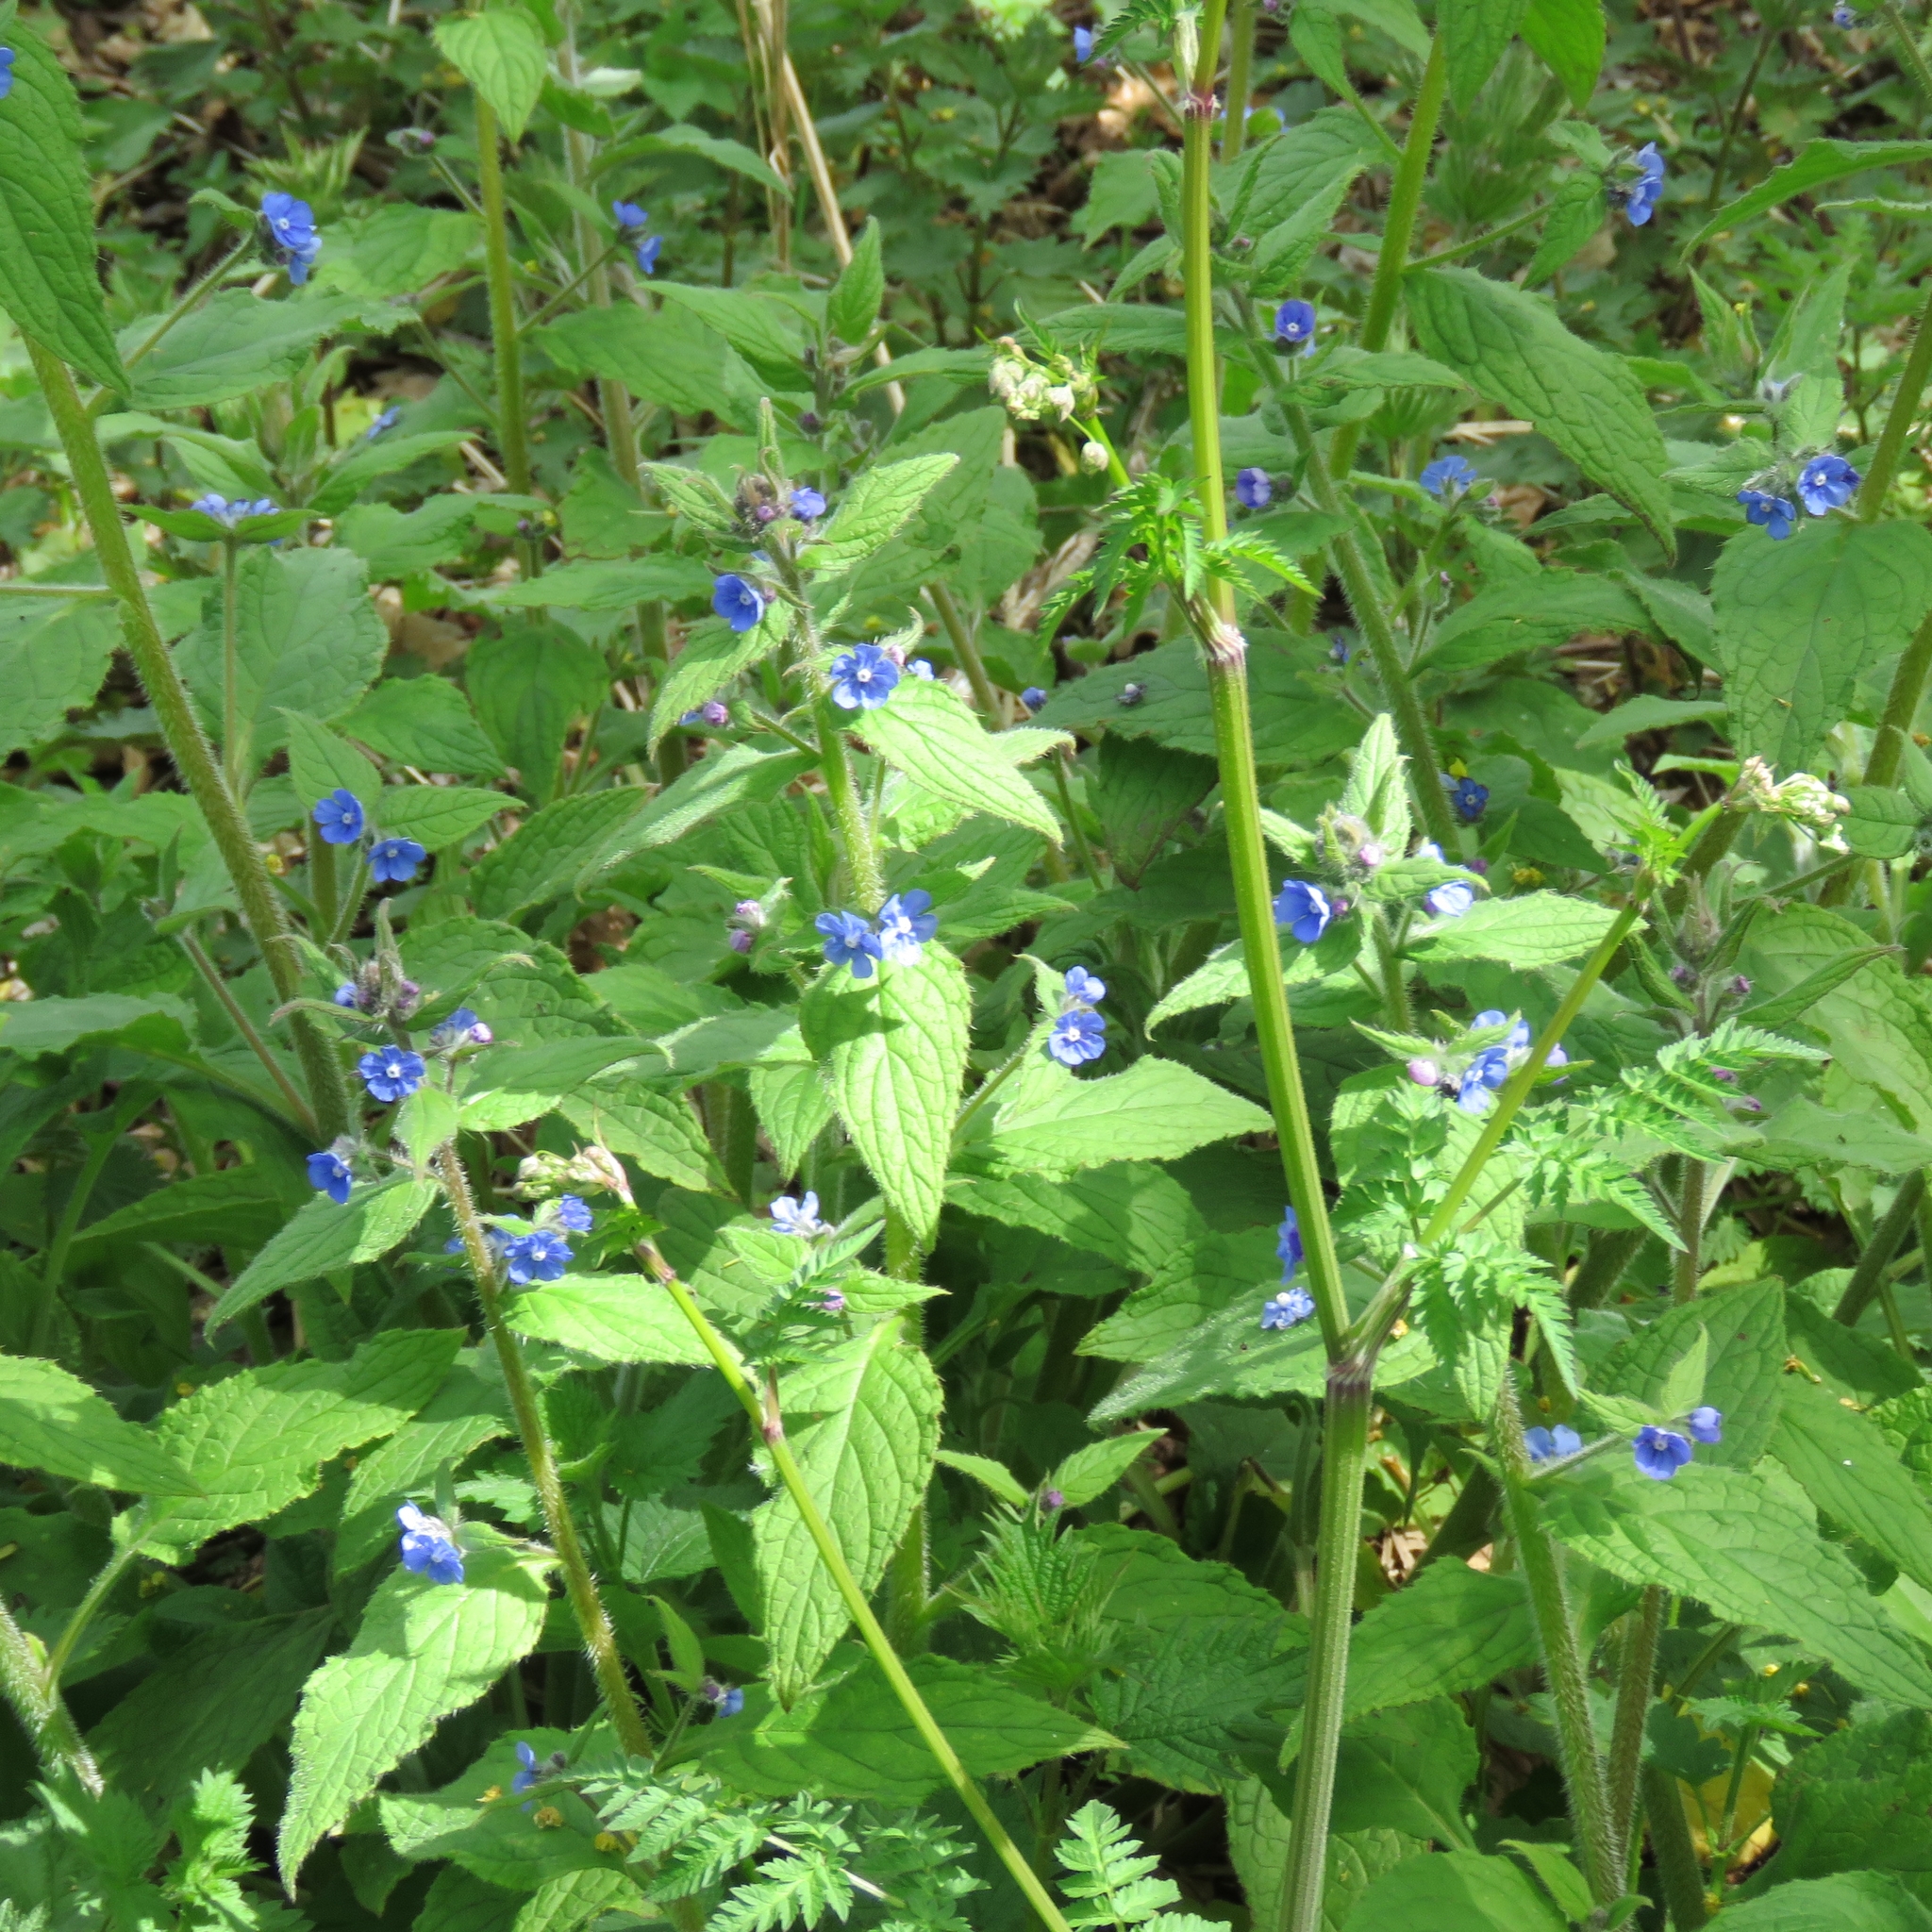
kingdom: Plantae
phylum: Tracheophyta
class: Magnoliopsida
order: Boraginales
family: Boraginaceae
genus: Pentaglottis
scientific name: Pentaglottis sempervirens
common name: Green alkanet
